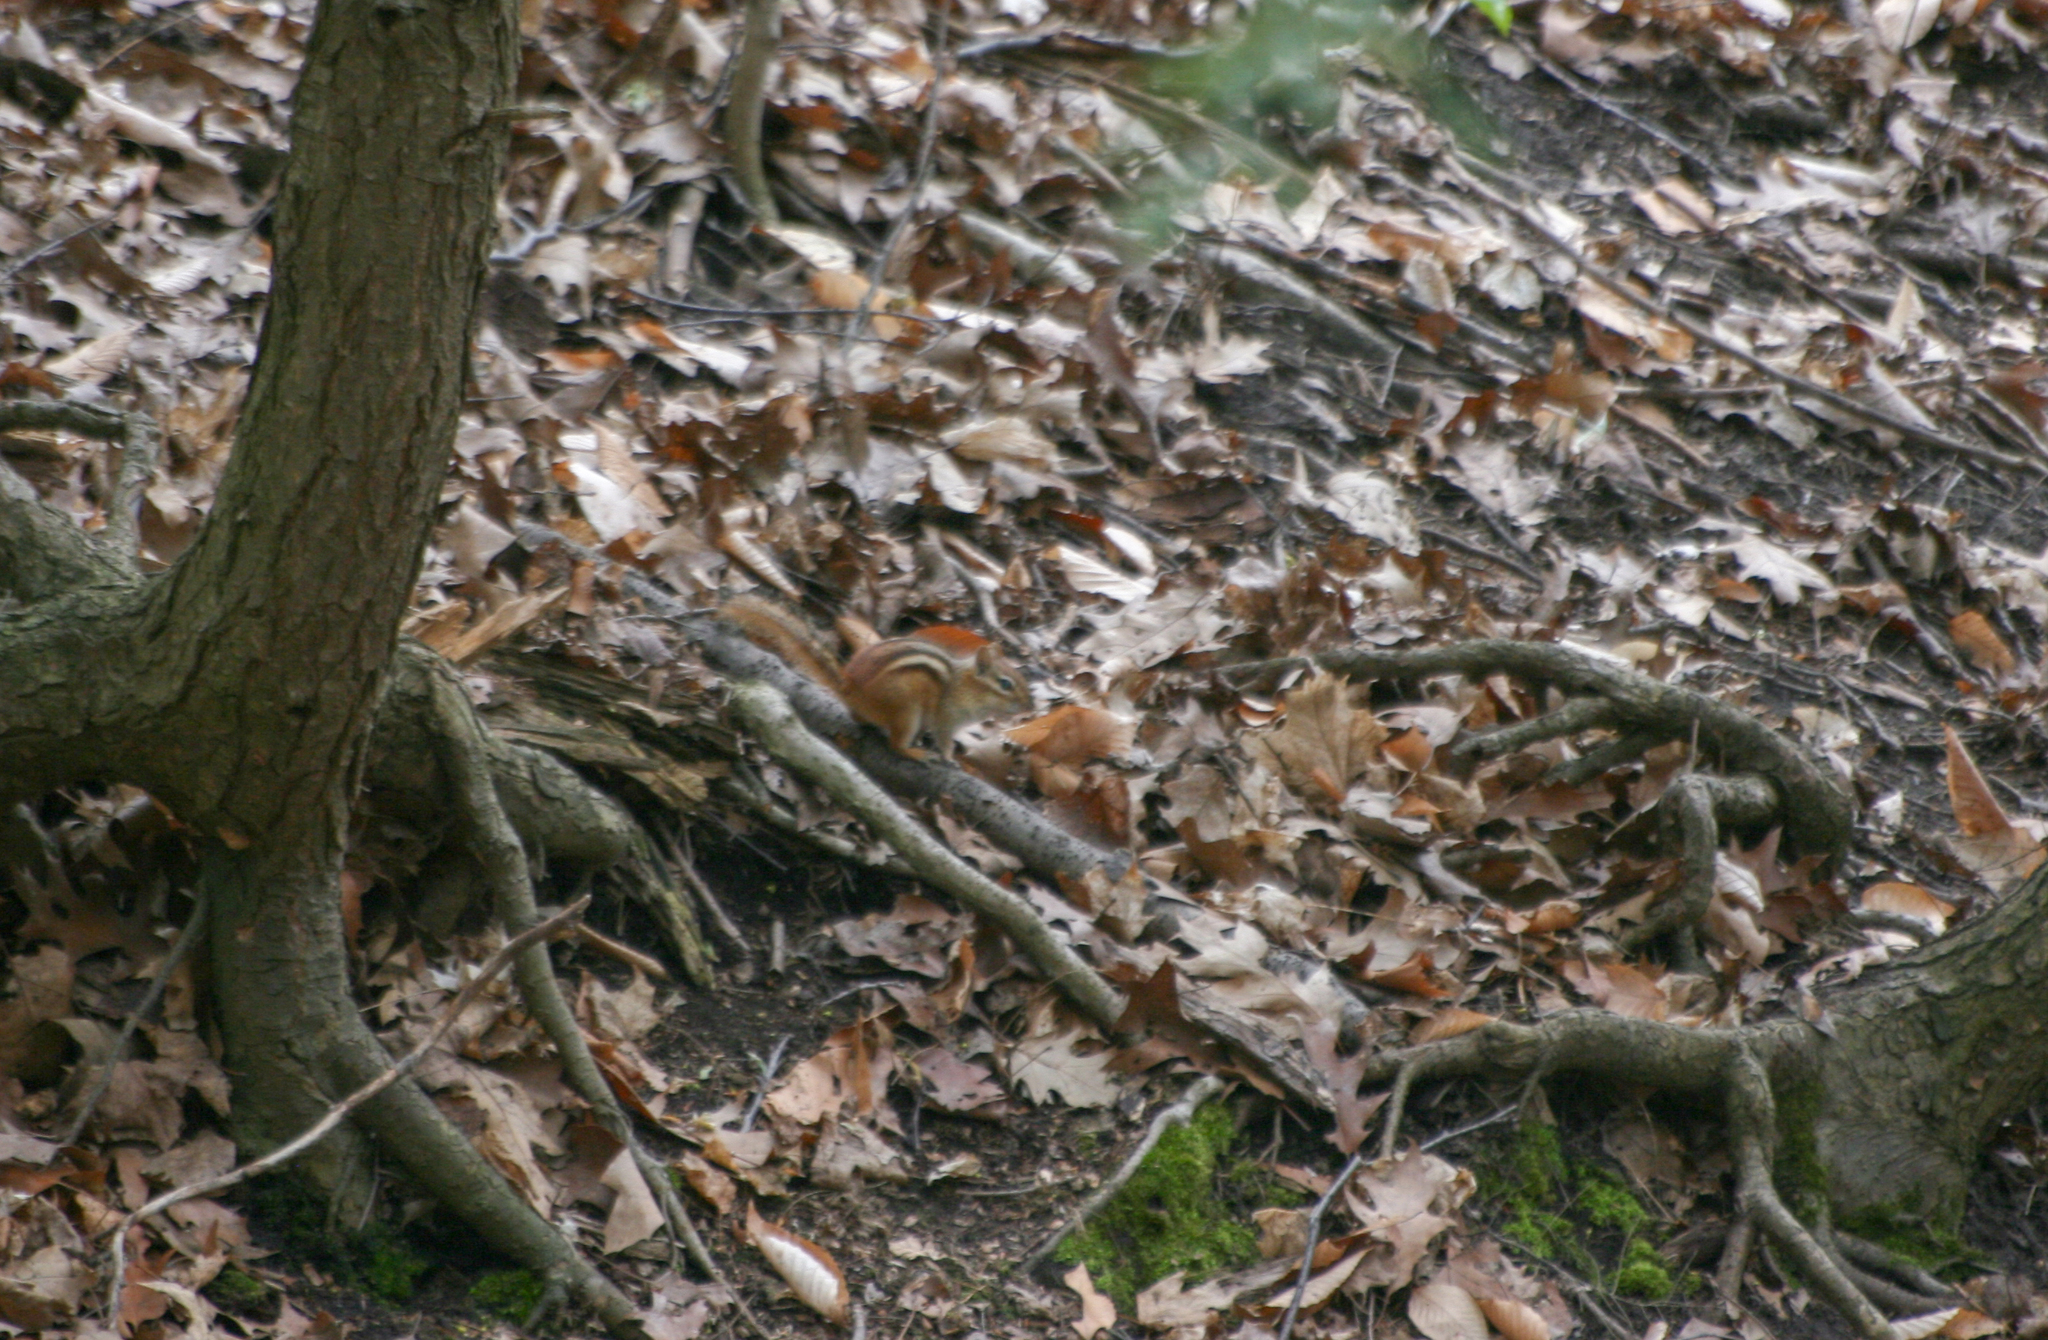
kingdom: Animalia
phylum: Chordata
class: Mammalia
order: Rodentia
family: Sciuridae
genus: Tamias
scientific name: Tamias striatus
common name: Eastern chipmunk
